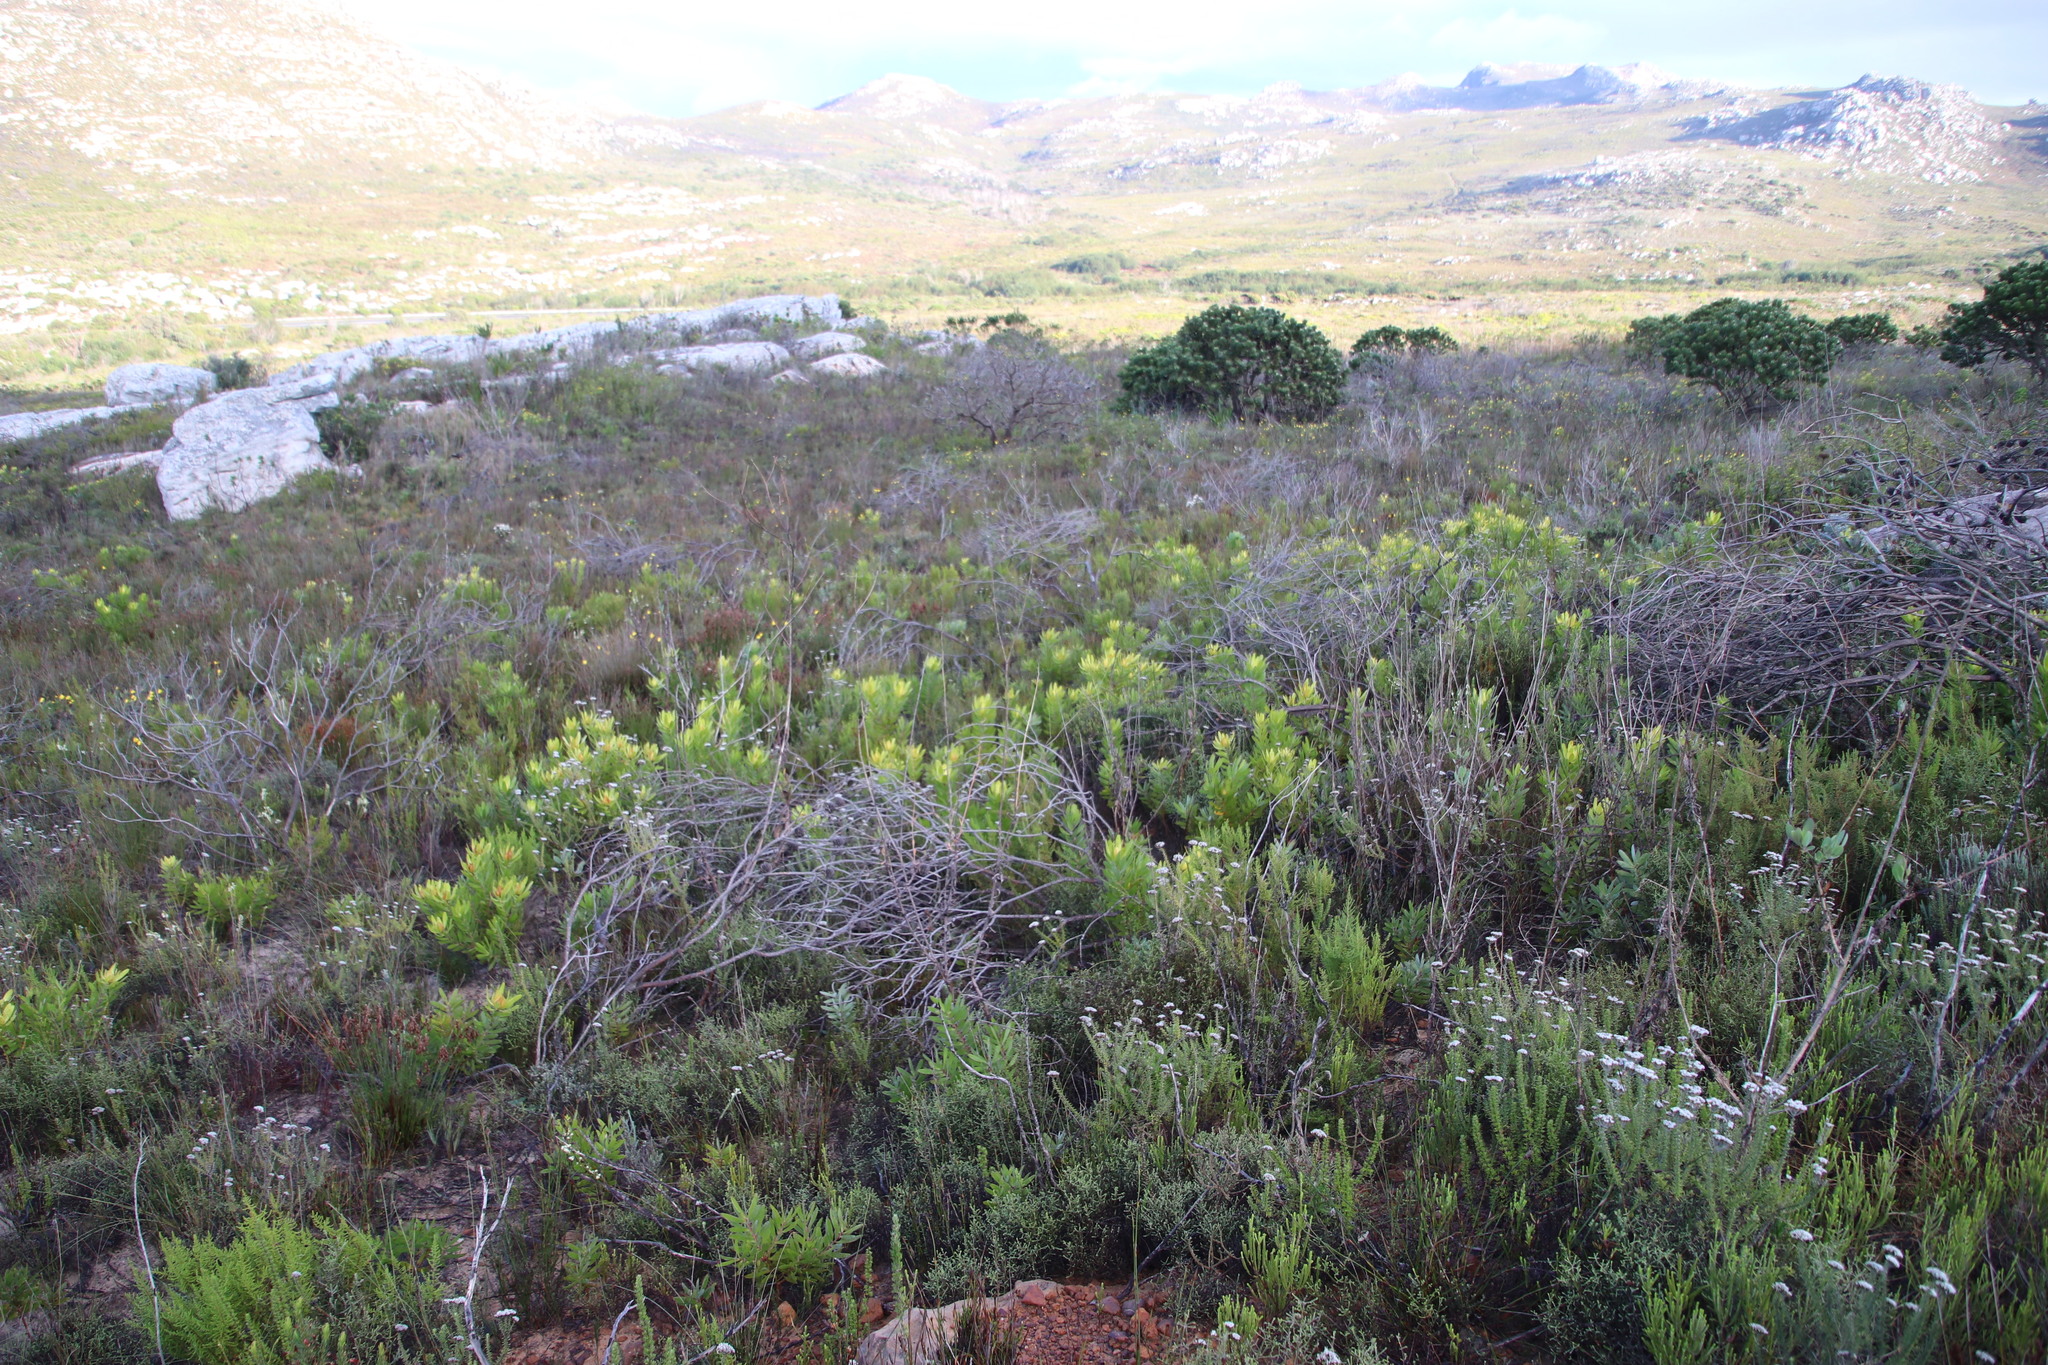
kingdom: Plantae
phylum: Tracheophyta
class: Magnoliopsida
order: Proteales
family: Proteaceae
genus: Leucadendron
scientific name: Leucadendron laureolum
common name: Golden sunshinebush
